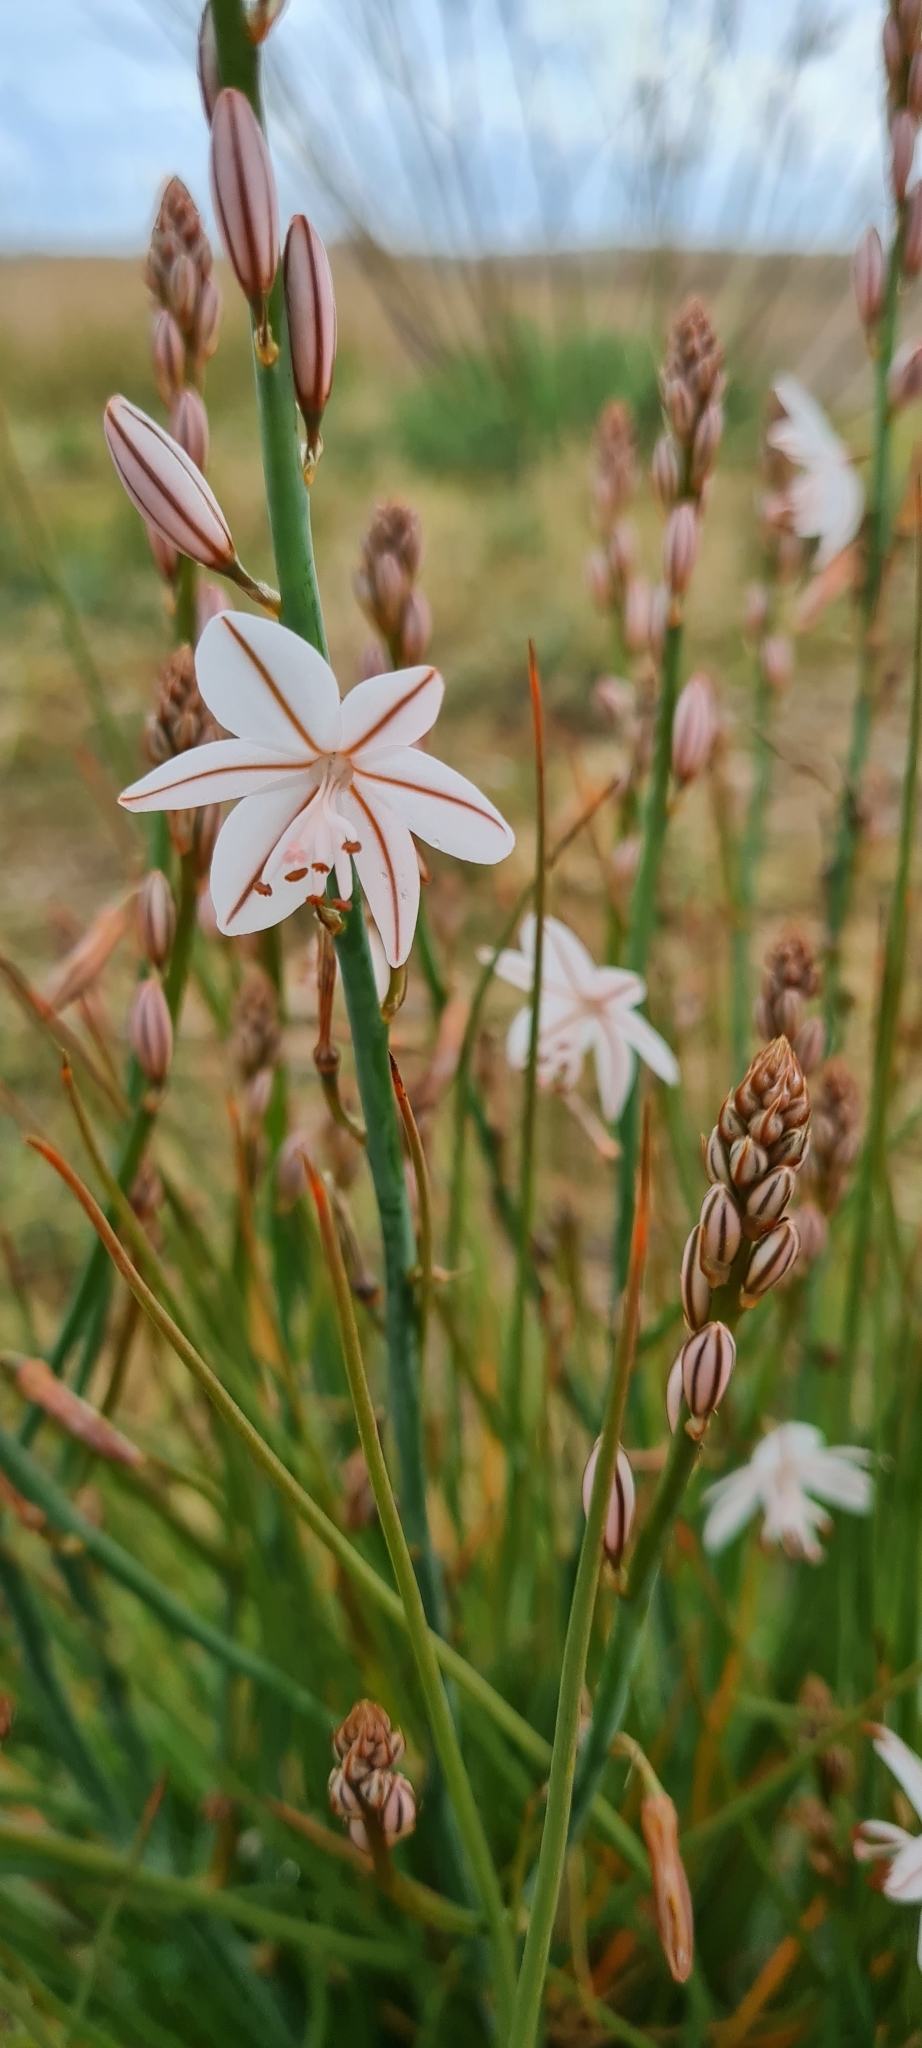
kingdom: Plantae
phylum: Tracheophyta
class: Liliopsida
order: Asparagales
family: Asphodelaceae
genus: Asphodelus
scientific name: Asphodelus fistulosus
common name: Onionweed
